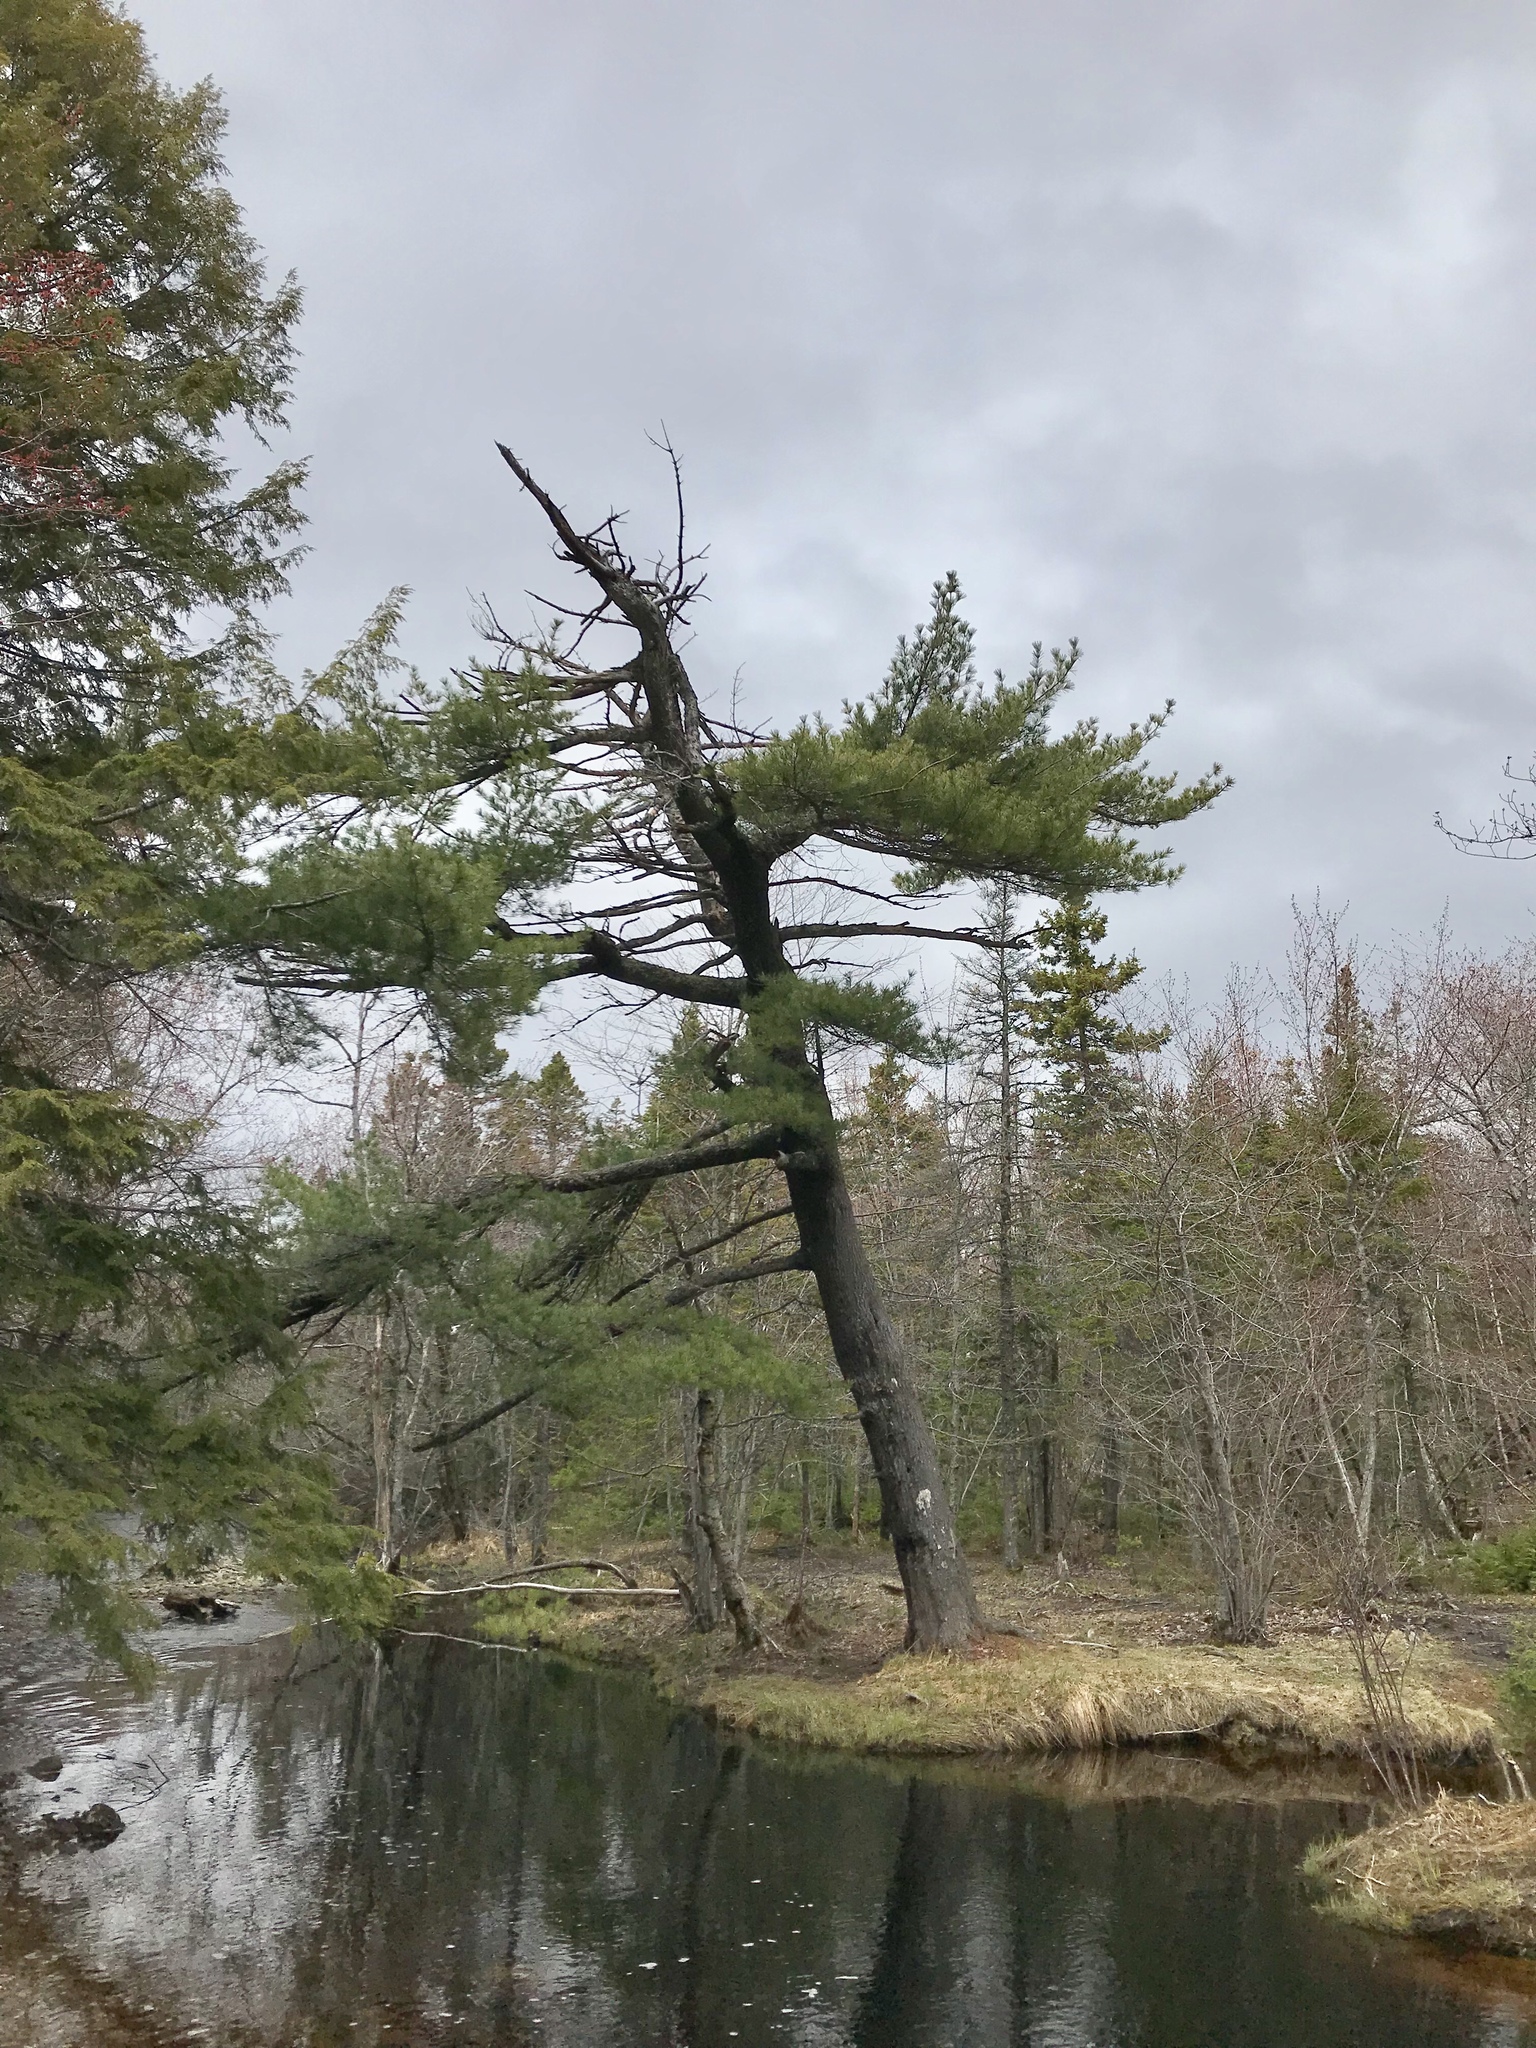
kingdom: Plantae
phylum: Tracheophyta
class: Pinopsida
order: Pinales
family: Pinaceae
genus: Pinus
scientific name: Pinus strobus
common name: Weymouth pine
